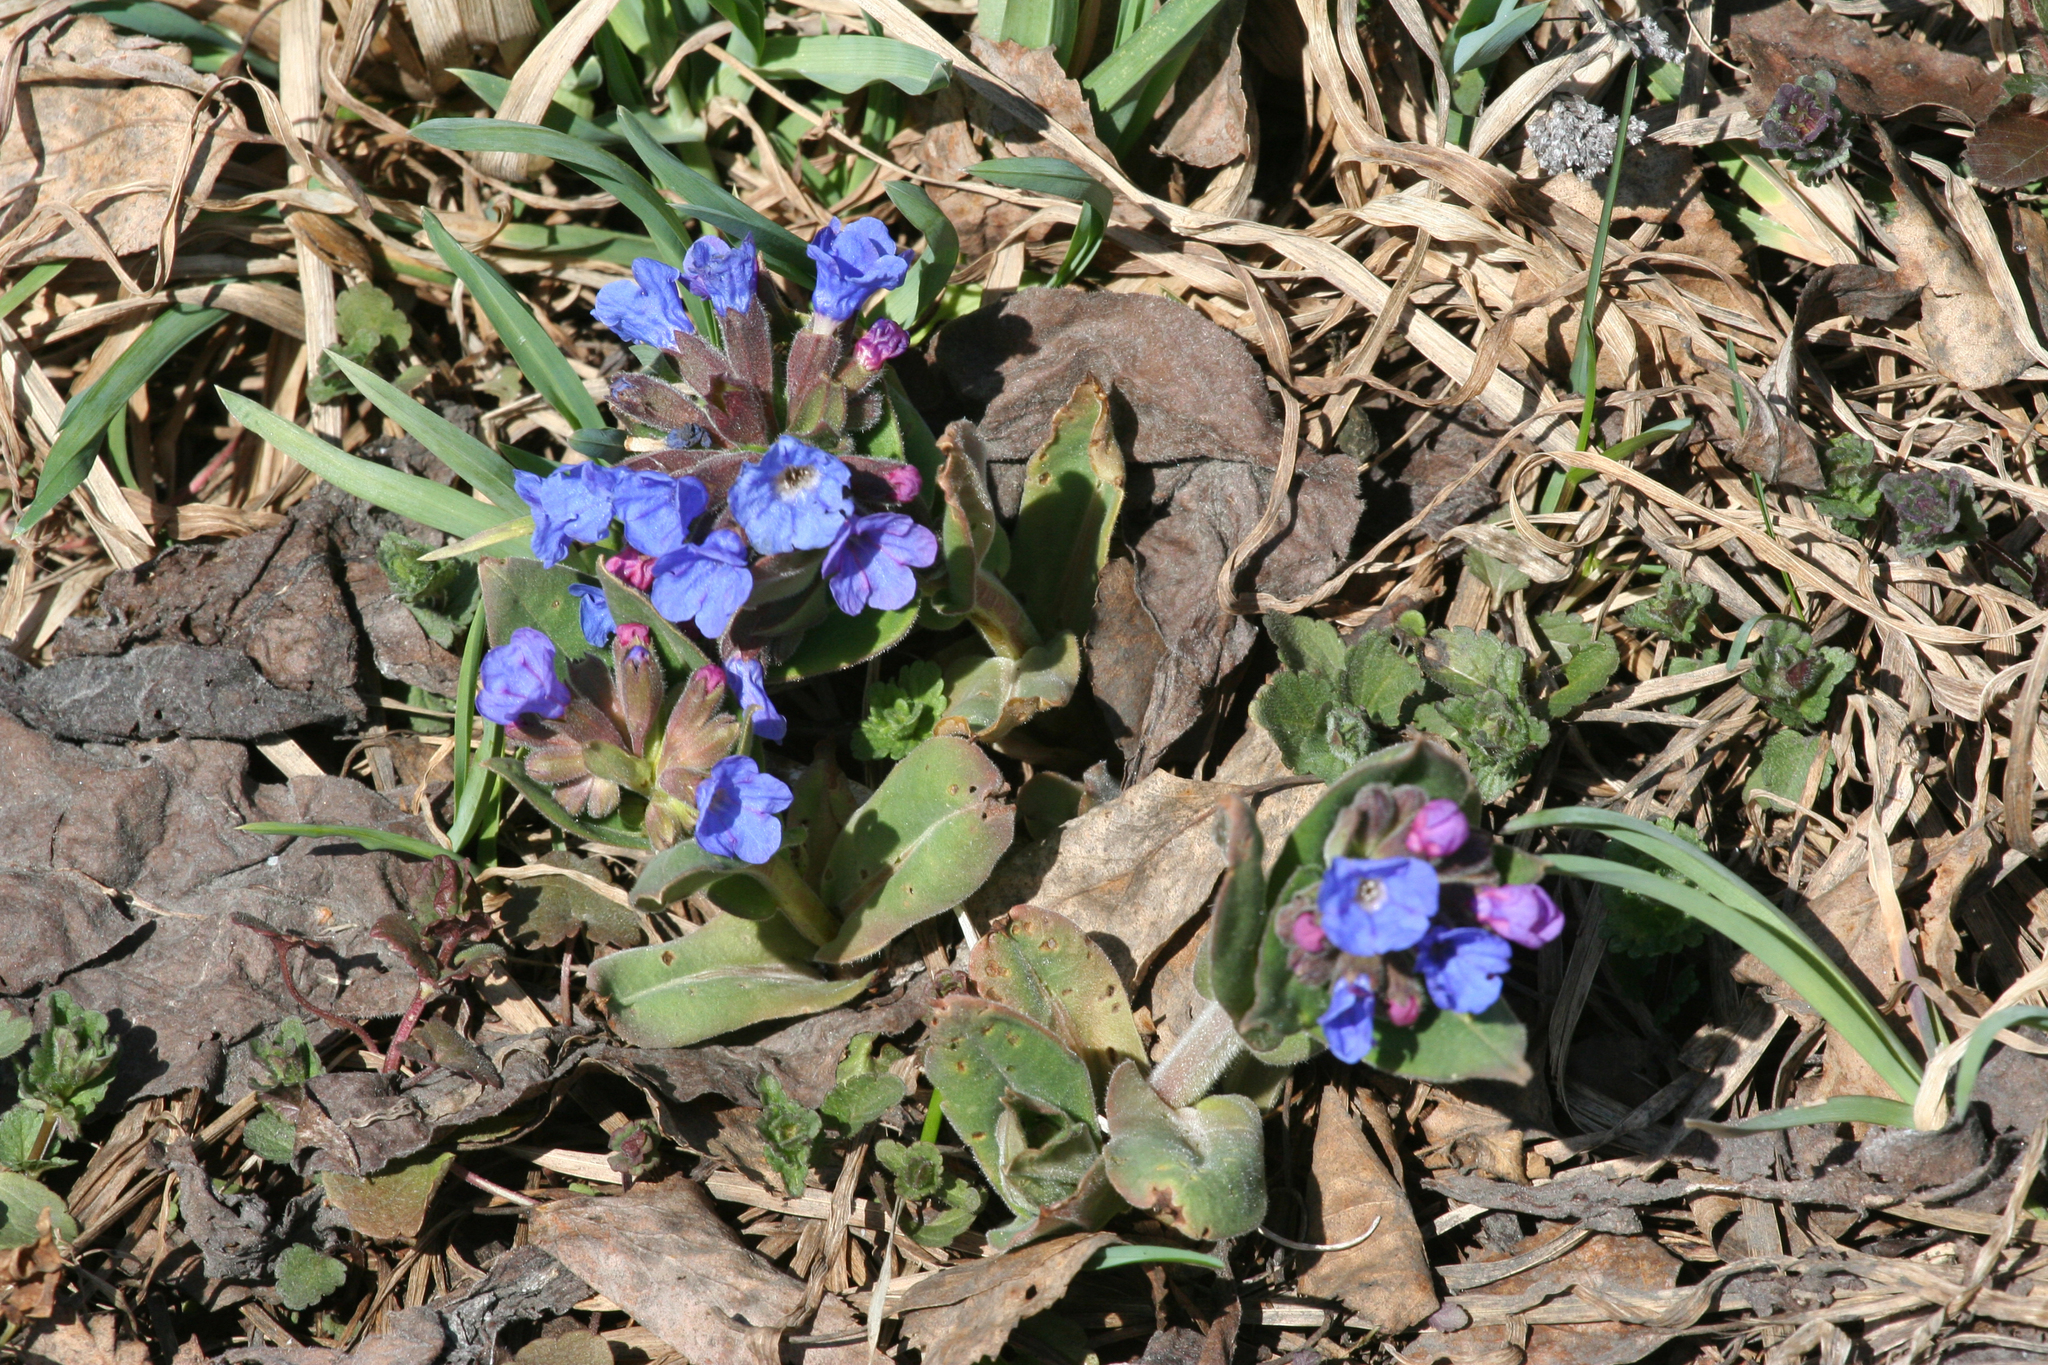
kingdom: Plantae
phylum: Tracheophyta
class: Magnoliopsida
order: Boraginales
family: Boraginaceae
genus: Pulmonaria
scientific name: Pulmonaria mollis
